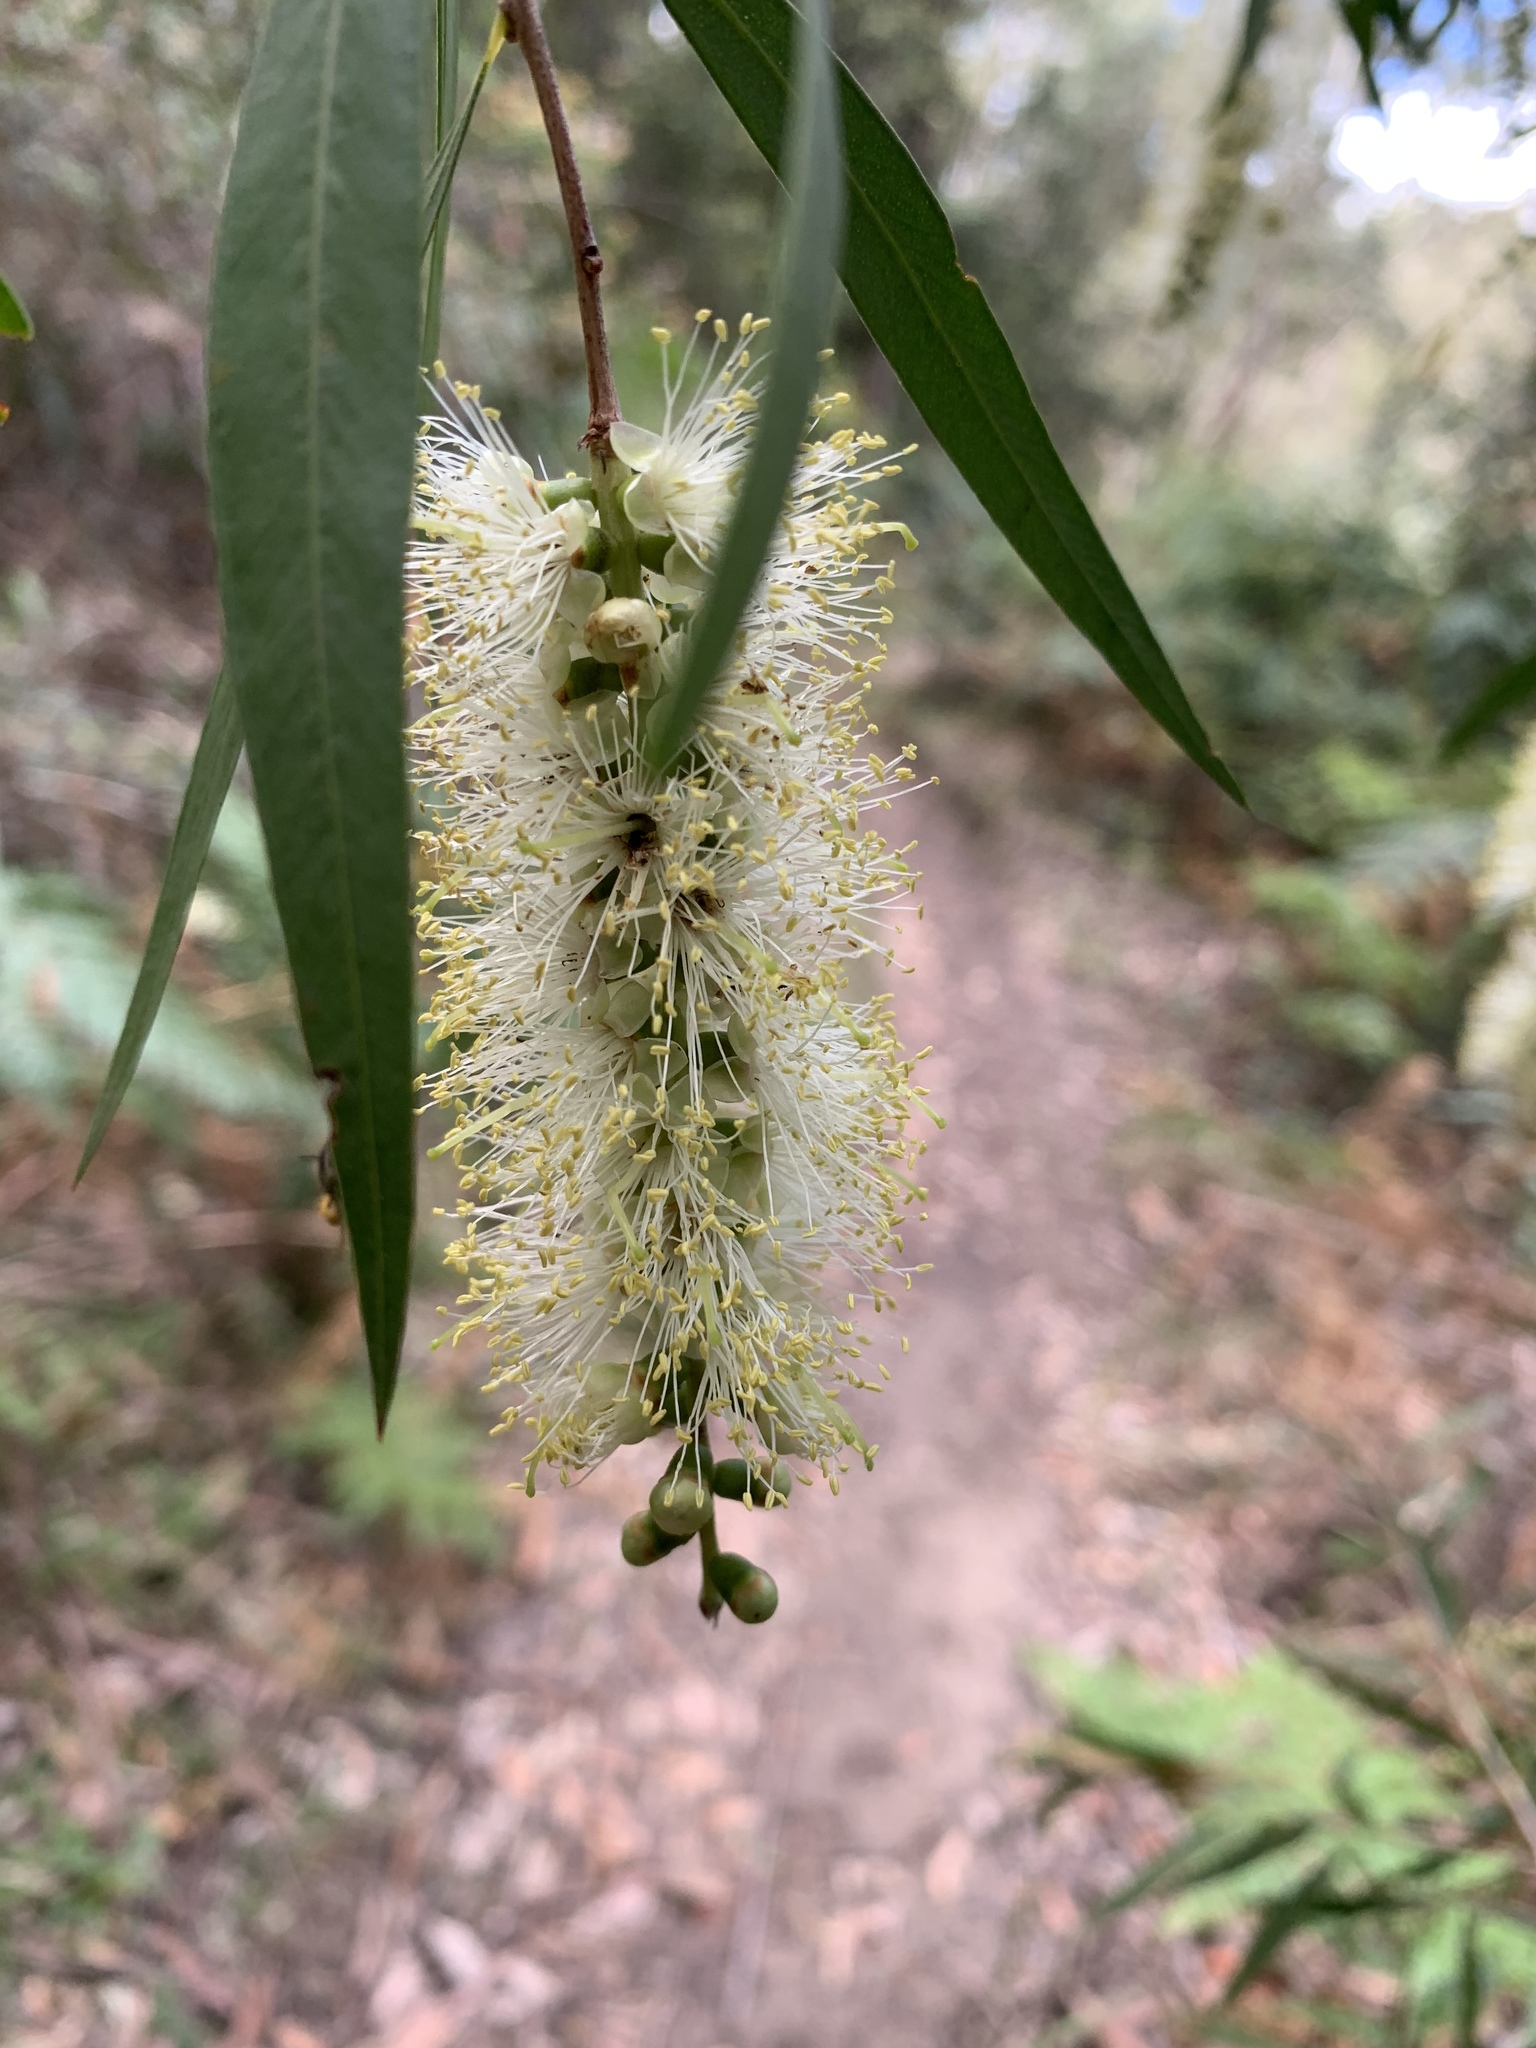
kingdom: Plantae
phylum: Tracheophyta
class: Magnoliopsida
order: Myrtales
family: Myrtaceae
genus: Callistemon
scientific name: Callistemon salignus
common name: White bottlebrush
